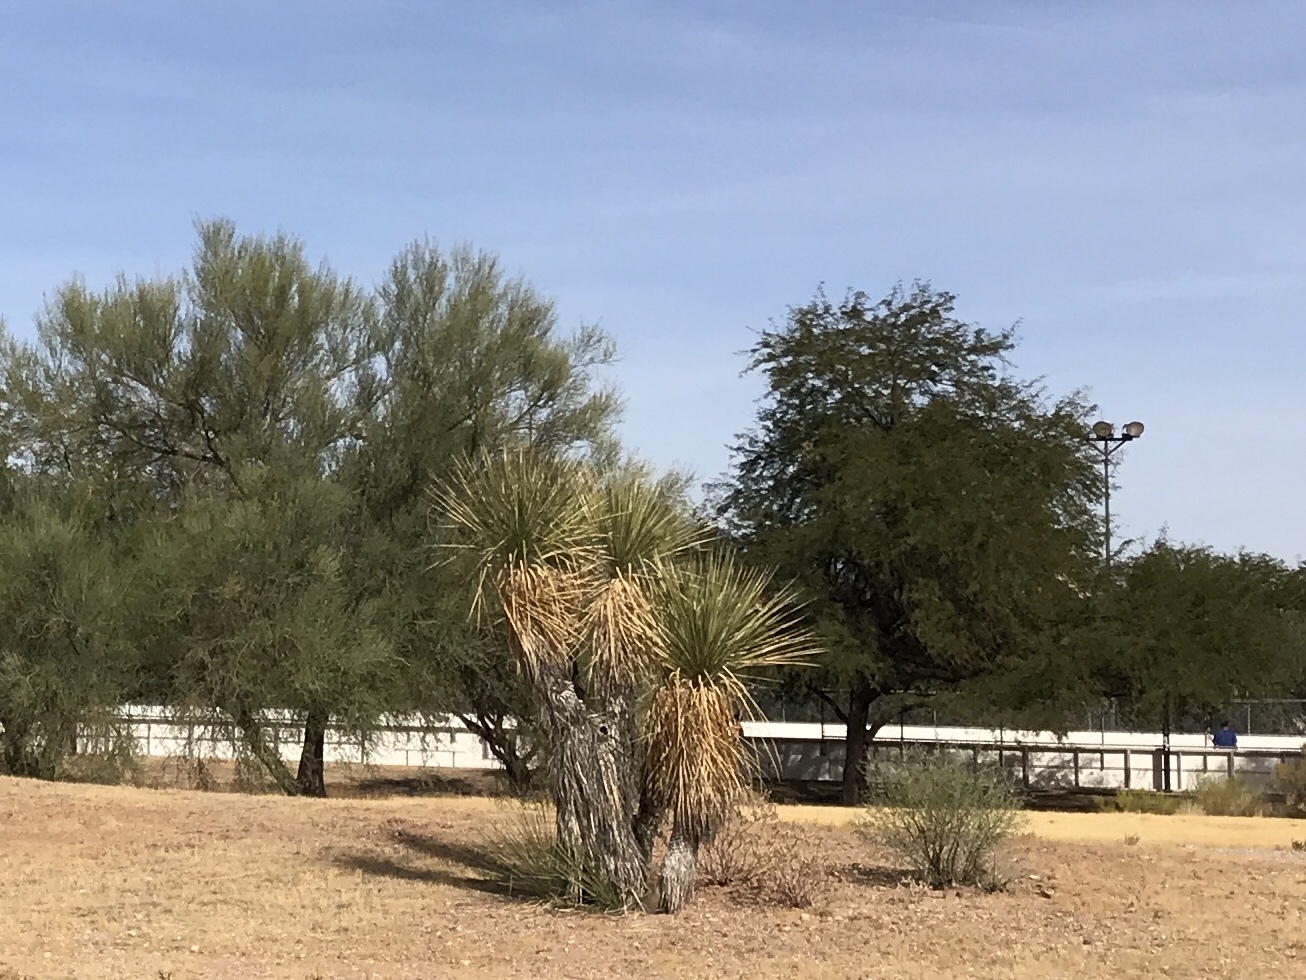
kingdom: Plantae
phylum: Tracheophyta
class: Liliopsida
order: Asparagales
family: Asparagaceae
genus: Yucca
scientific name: Yucca elata
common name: Palmella
